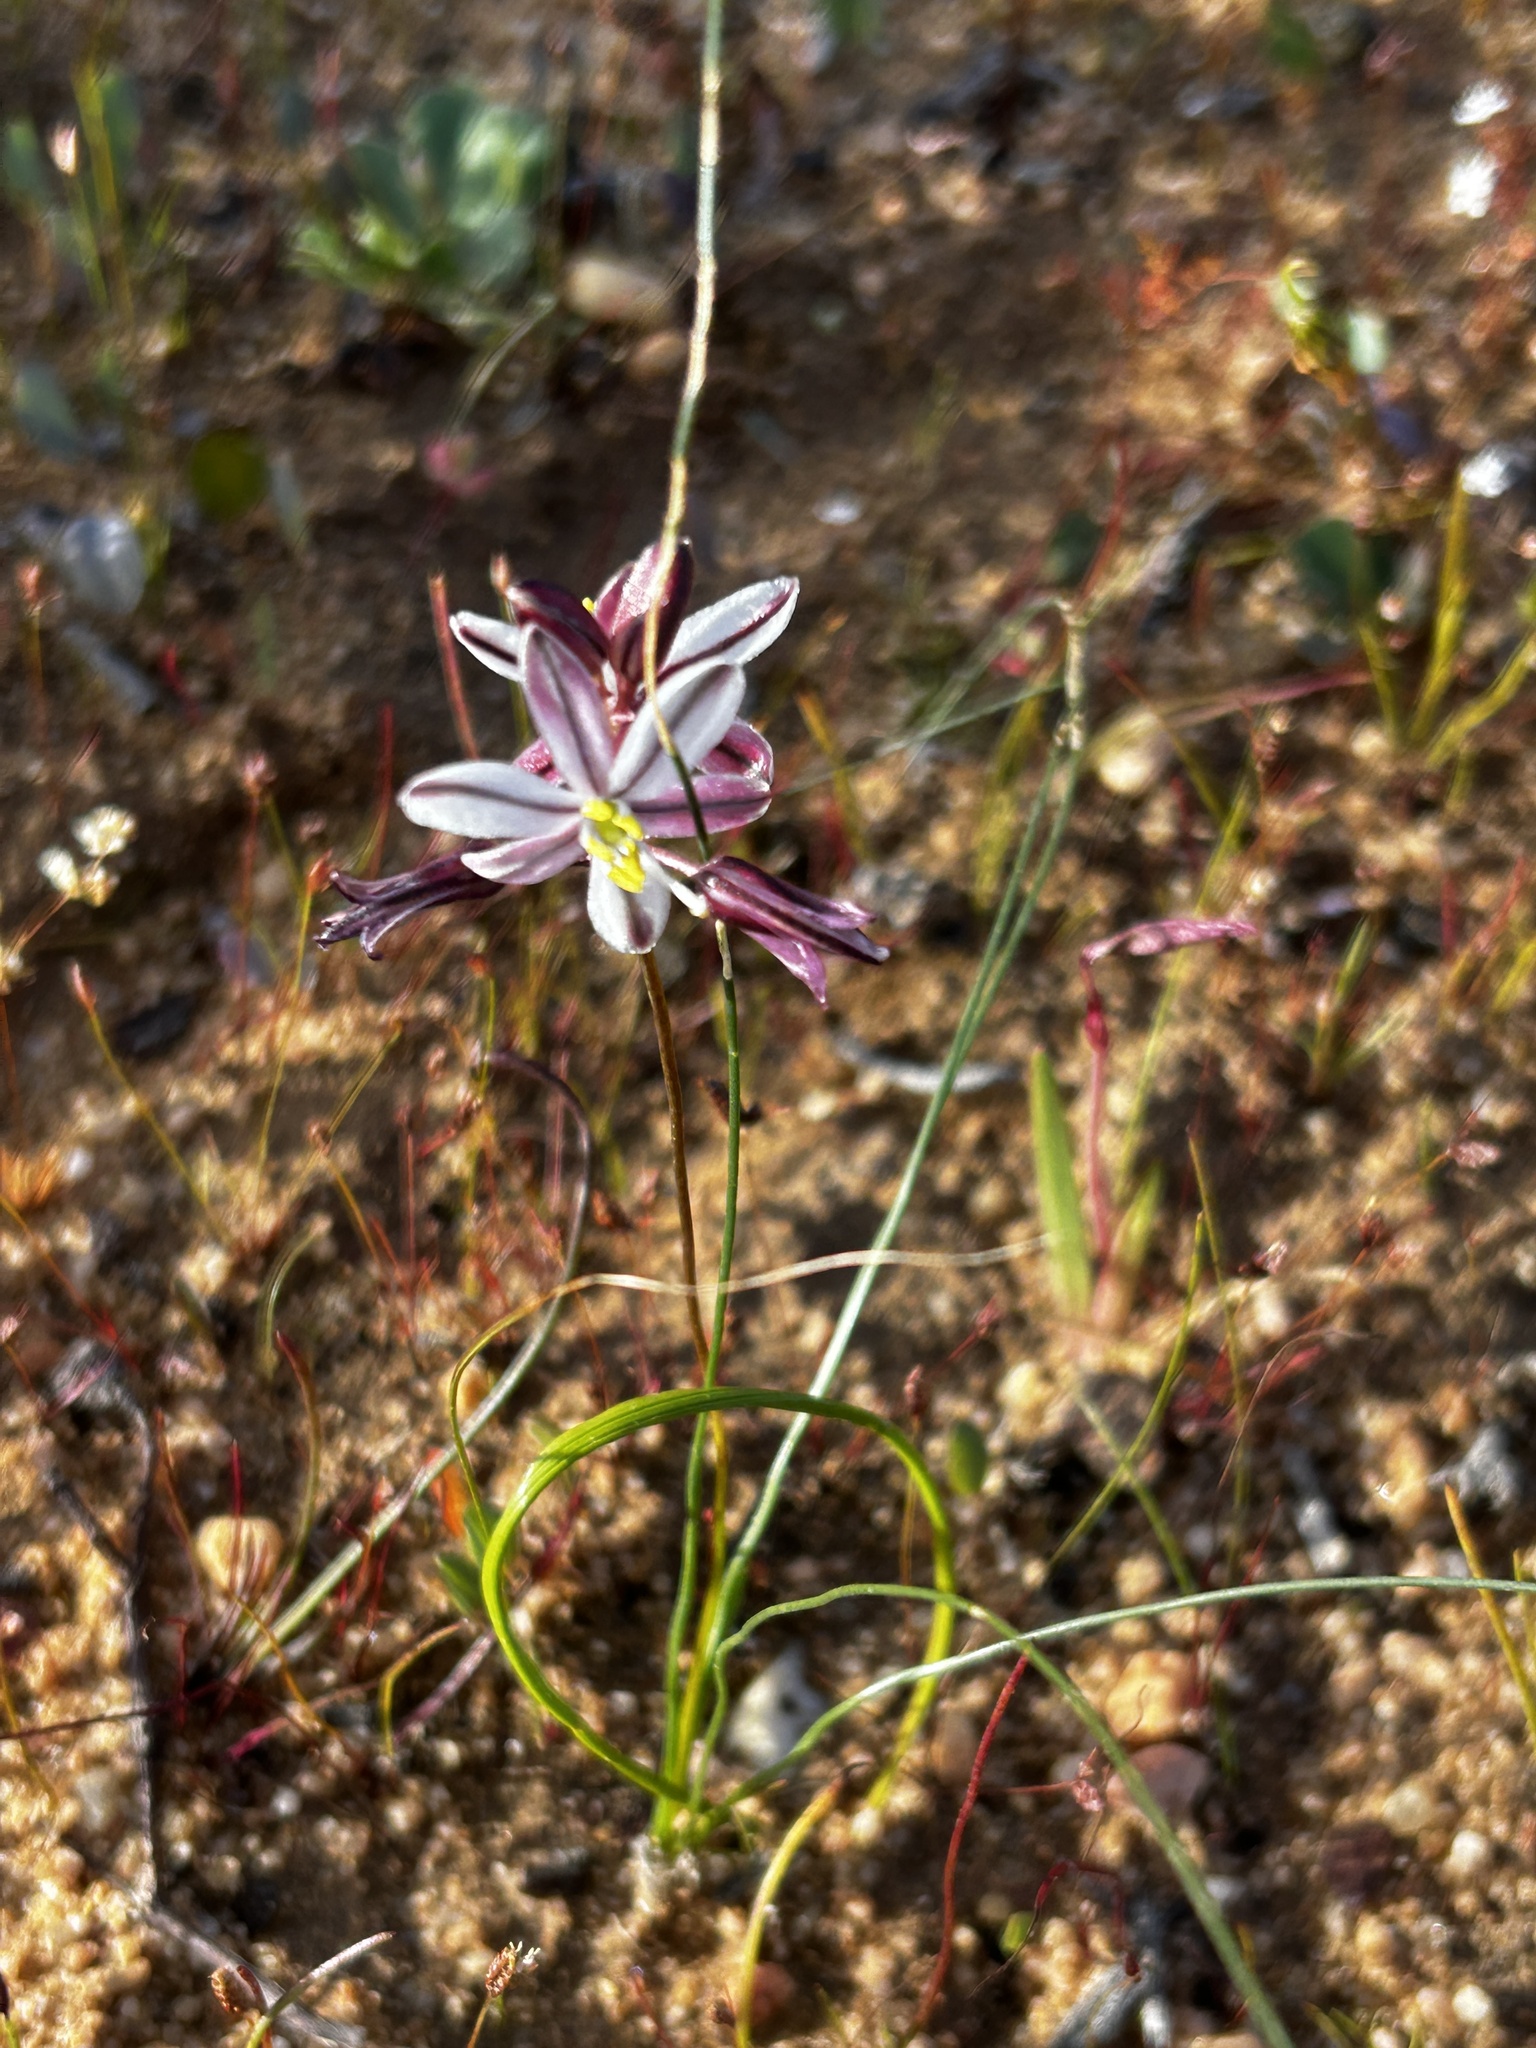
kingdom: Plantae
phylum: Tracheophyta
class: Liliopsida
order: Asparagales
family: Asparagaceae
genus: Drimia
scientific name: Drimia exuviata
